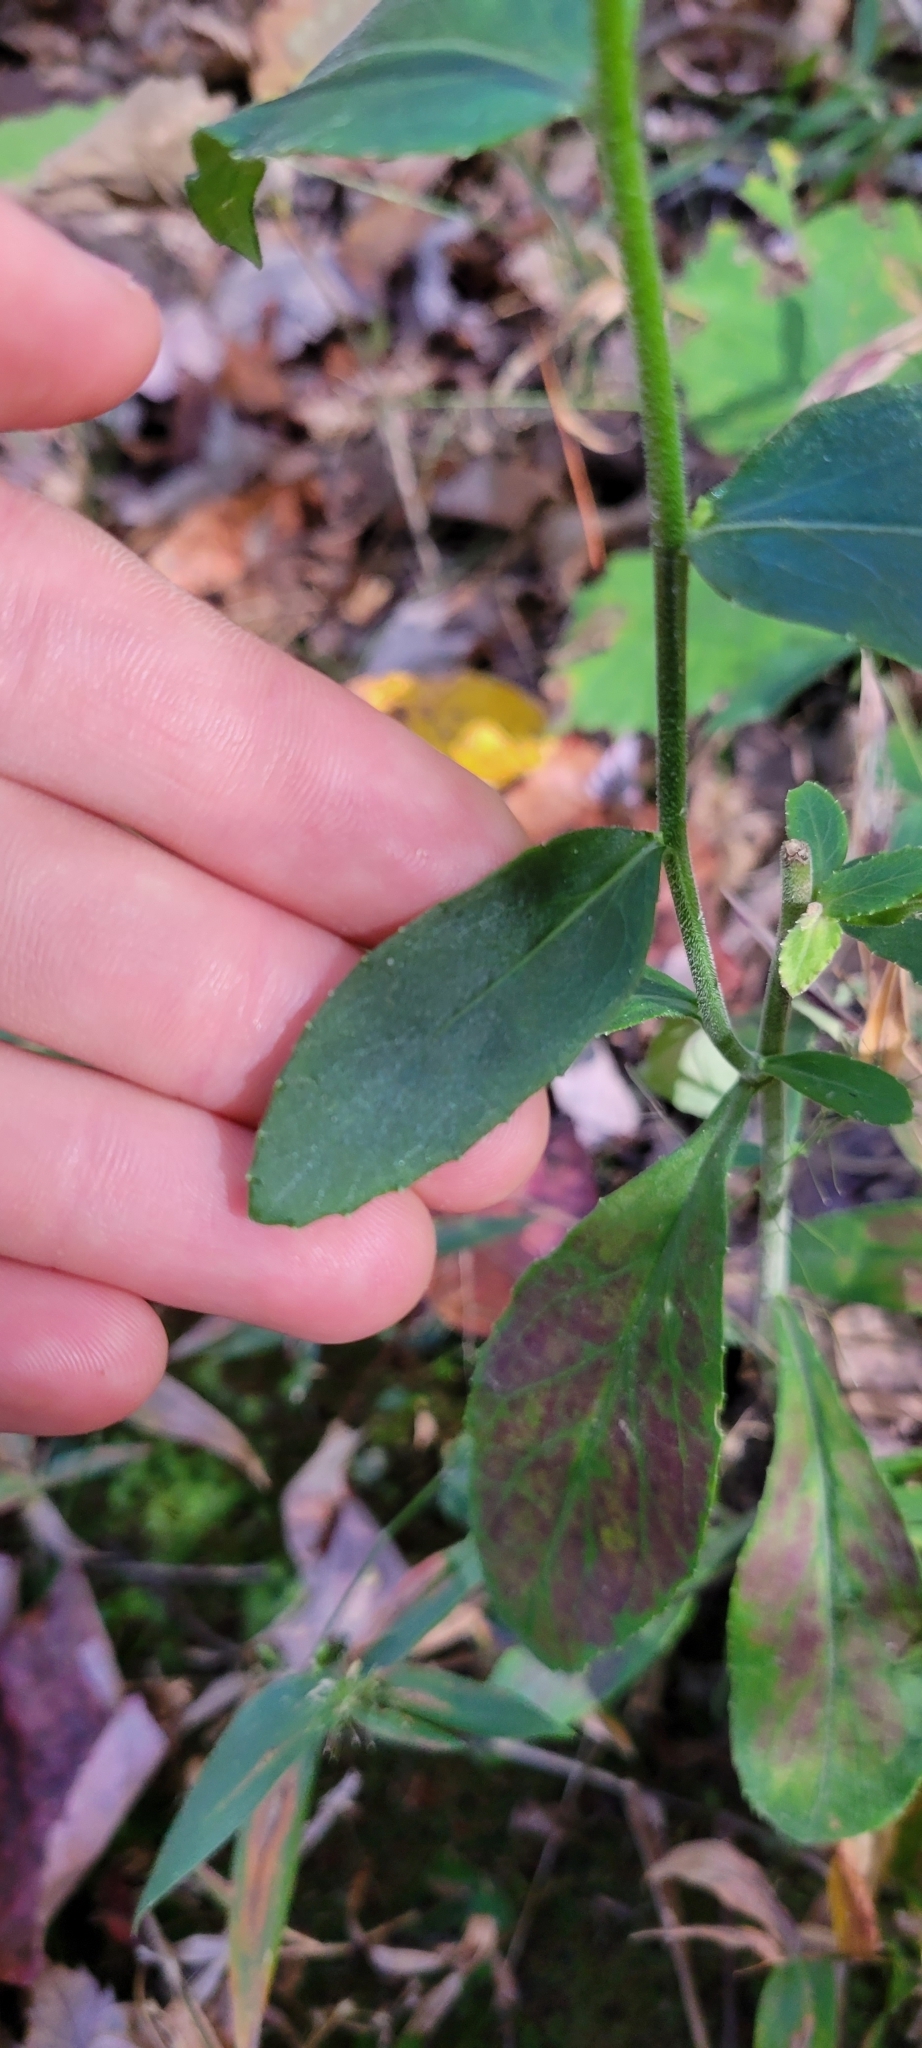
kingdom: Plantae
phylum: Tracheophyta
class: Magnoliopsida
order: Asterales
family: Campanulaceae
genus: Lobelia
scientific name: Lobelia puberula
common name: Purple dewdrop
